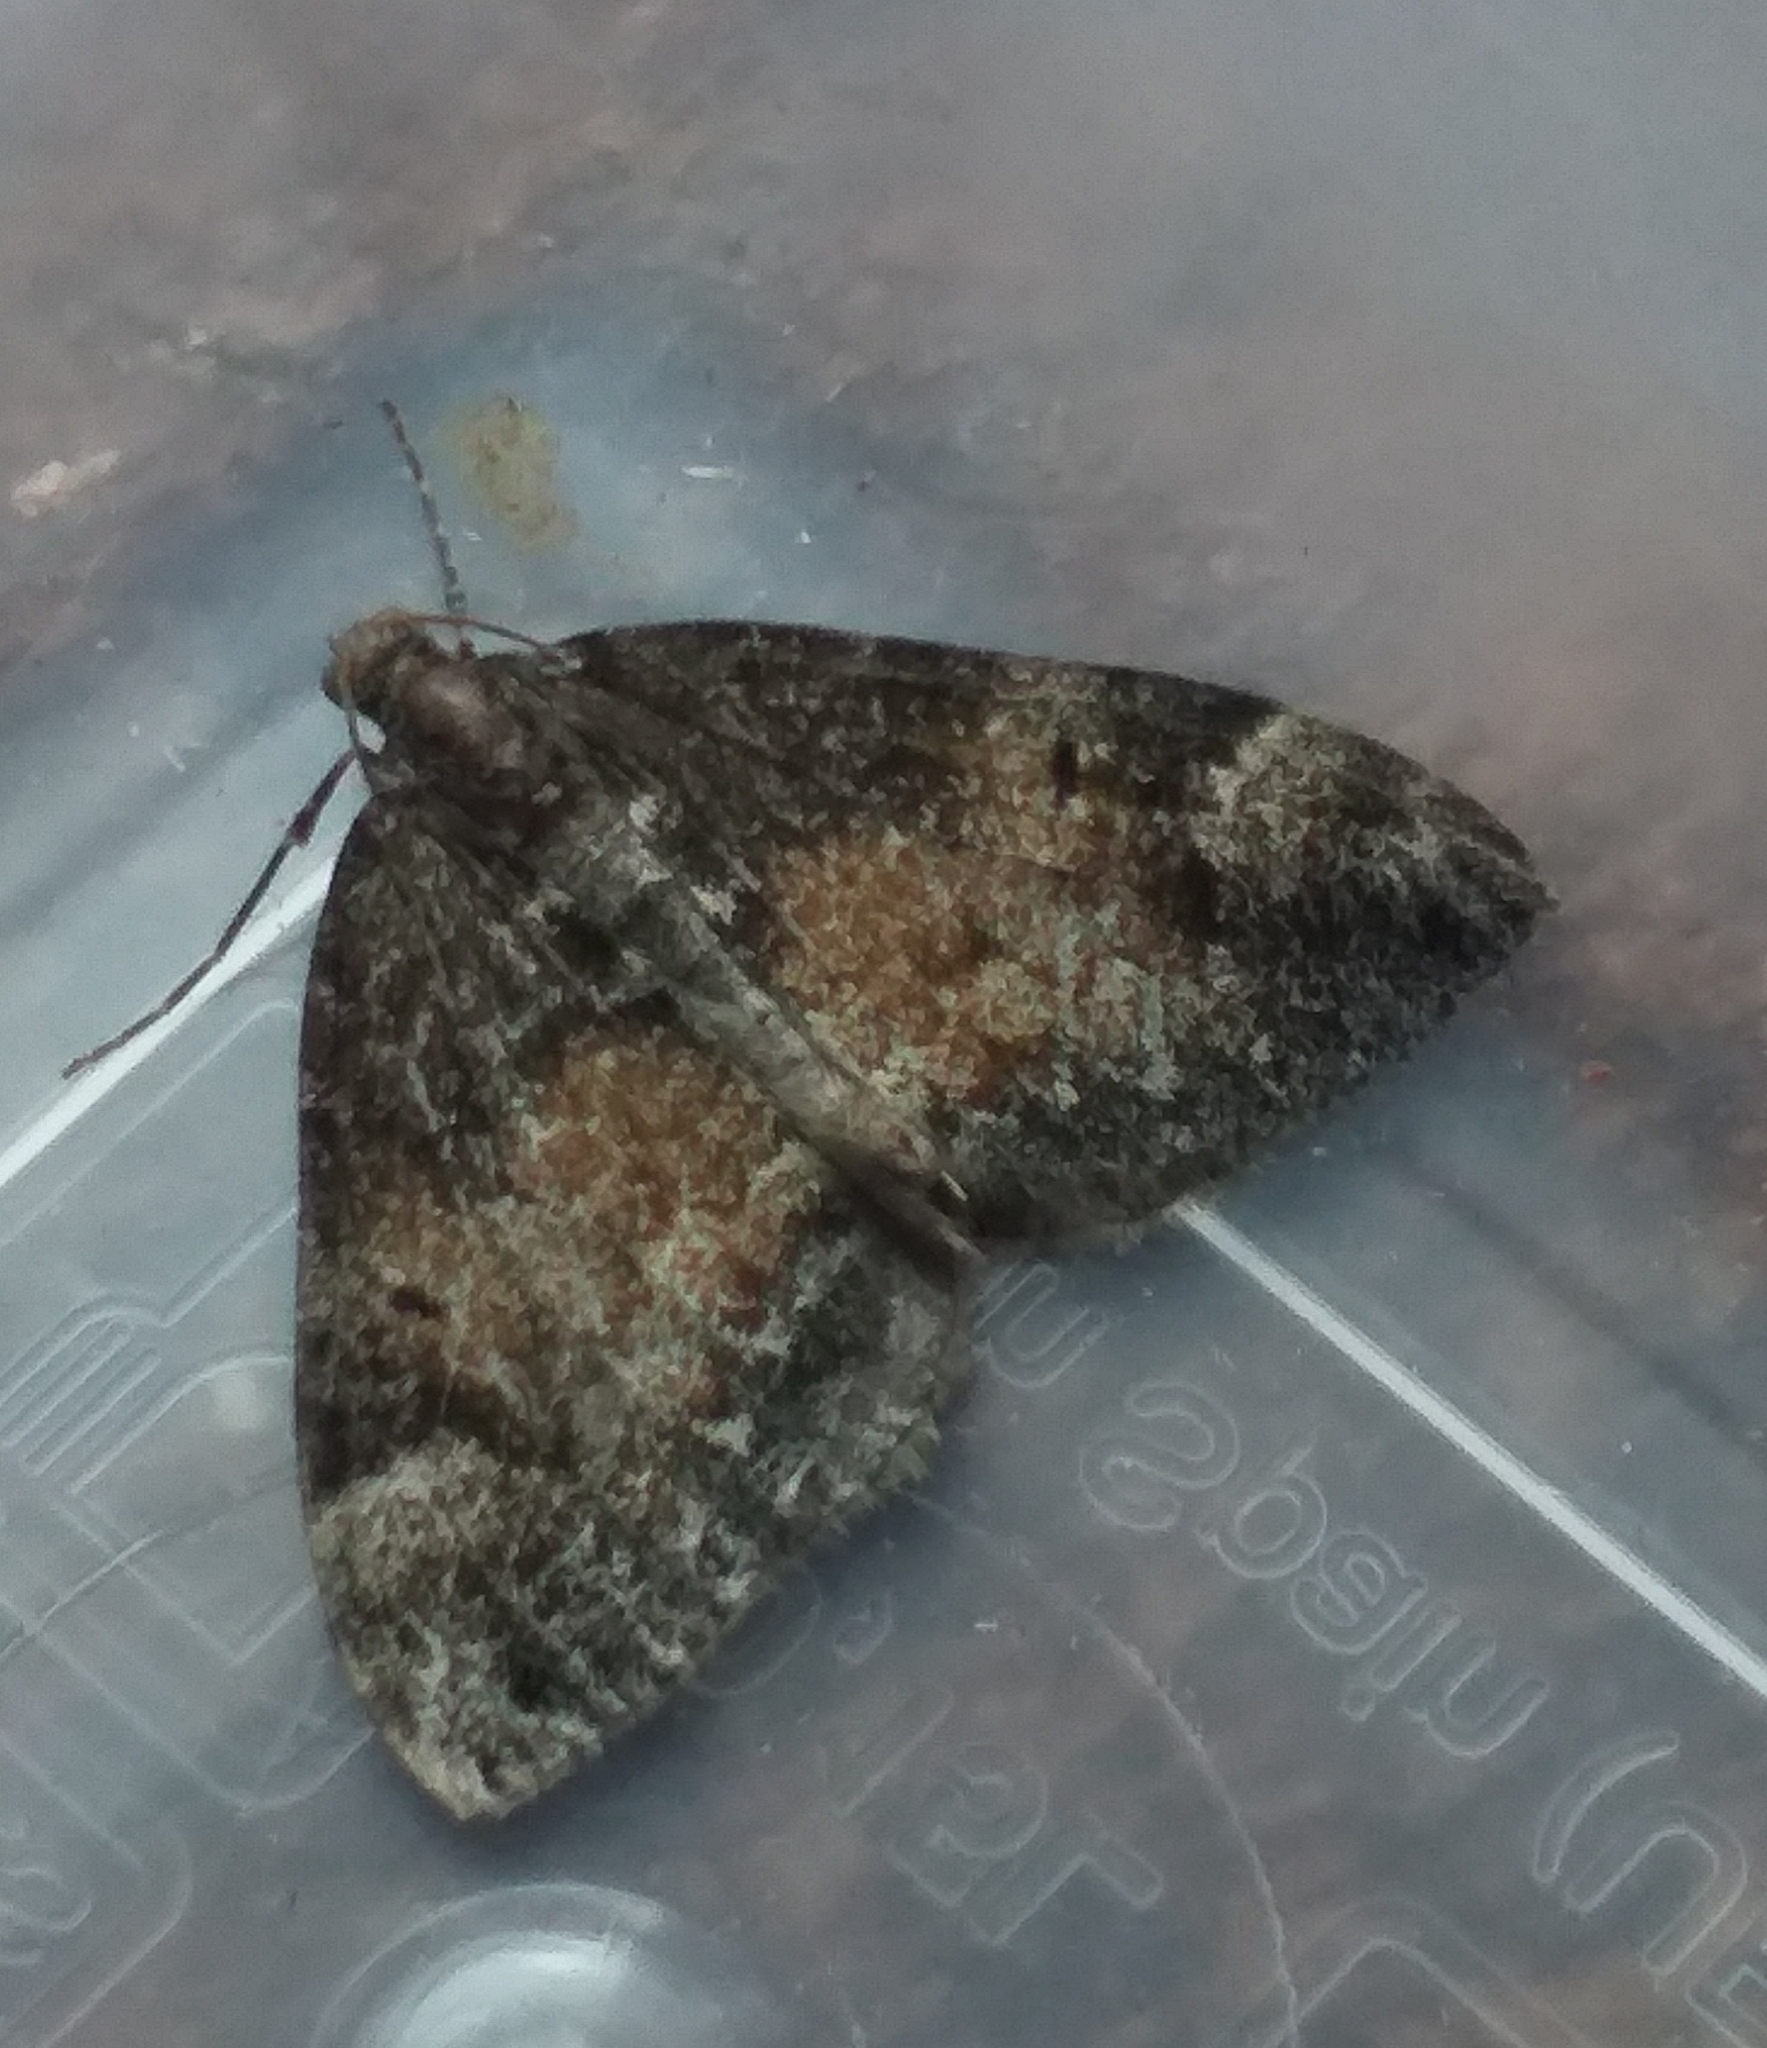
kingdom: Animalia
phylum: Arthropoda
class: Insecta
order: Lepidoptera
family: Geometridae
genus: Dysstroma
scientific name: Dysstroma truncata
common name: Common marbled carpet
